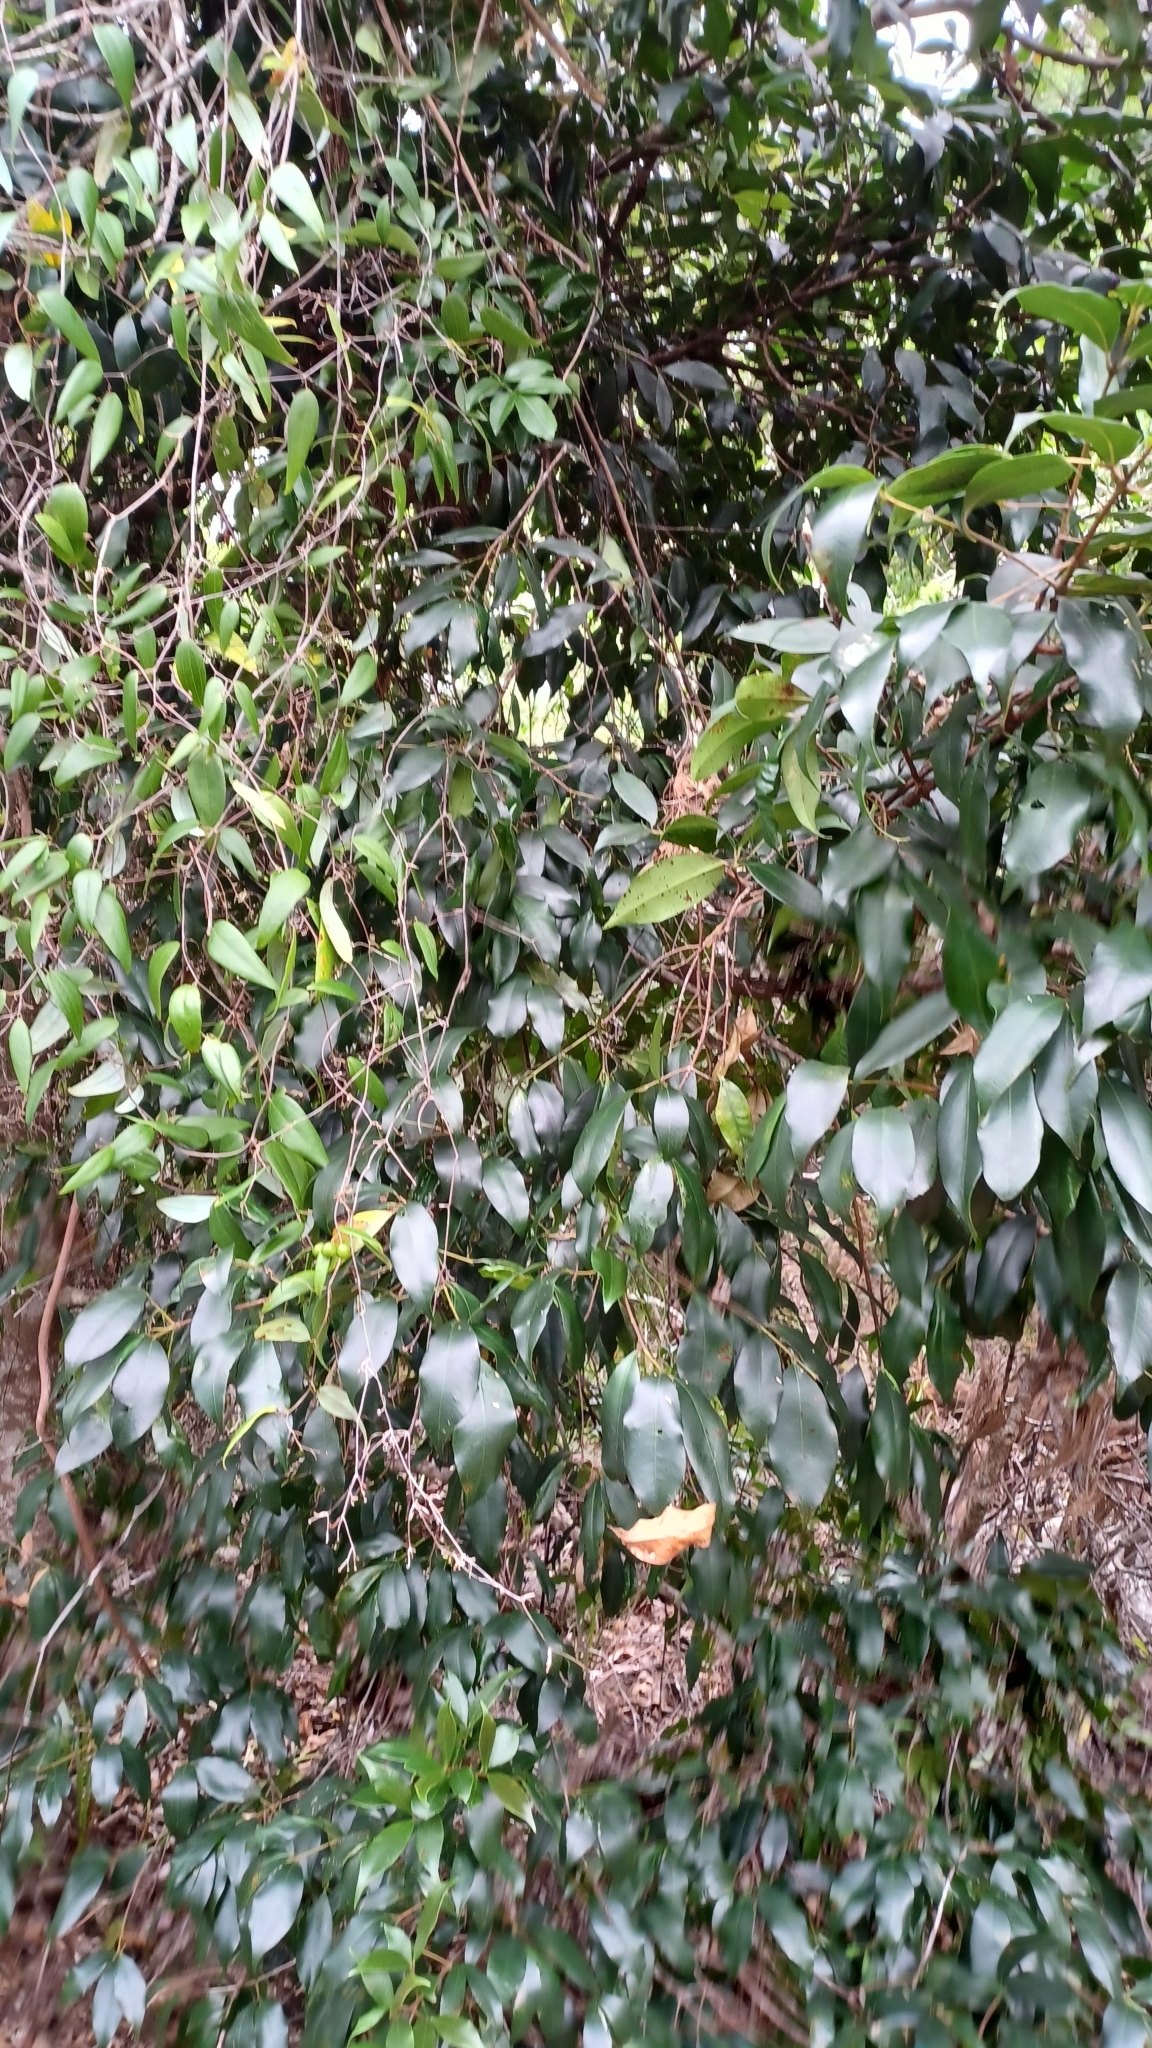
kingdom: Plantae
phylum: Tracheophyta
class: Magnoliopsida
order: Myrtales
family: Myrtaceae
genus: Syzygium
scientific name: Syzygium oleosum
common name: Oily satin-ash
